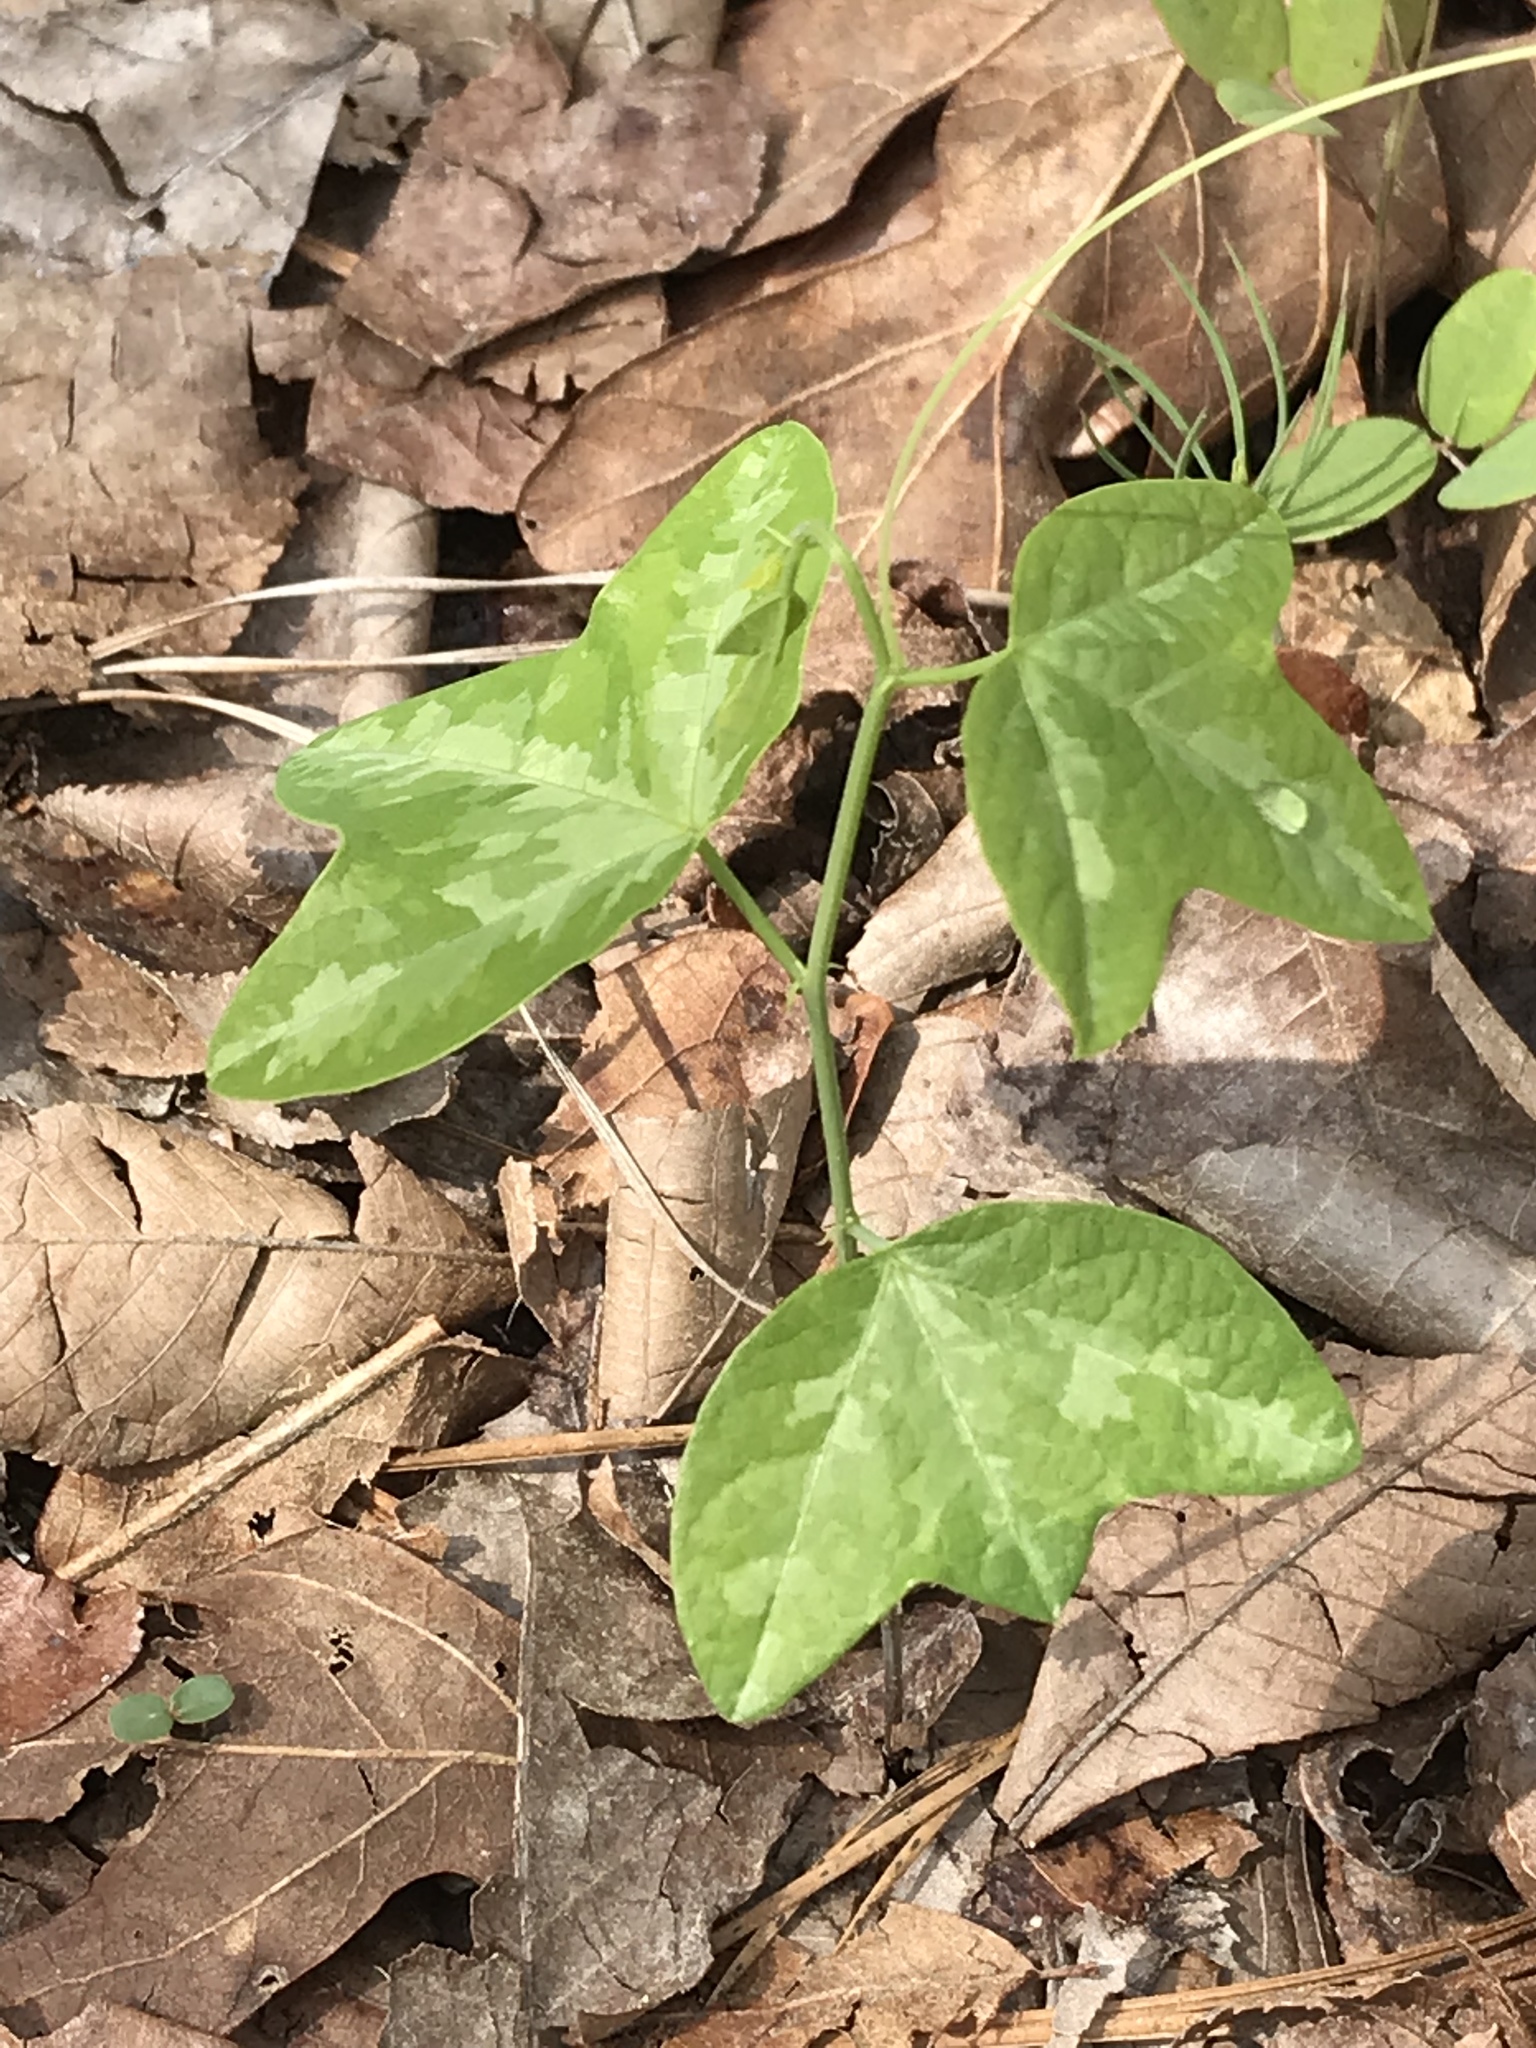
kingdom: Plantae
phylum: Tracheophyta
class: Magnoliopsida
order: Malpighiales
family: Passifloraceae
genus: Passiflora
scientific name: Passiflora lutea
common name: Yellow passionflower
